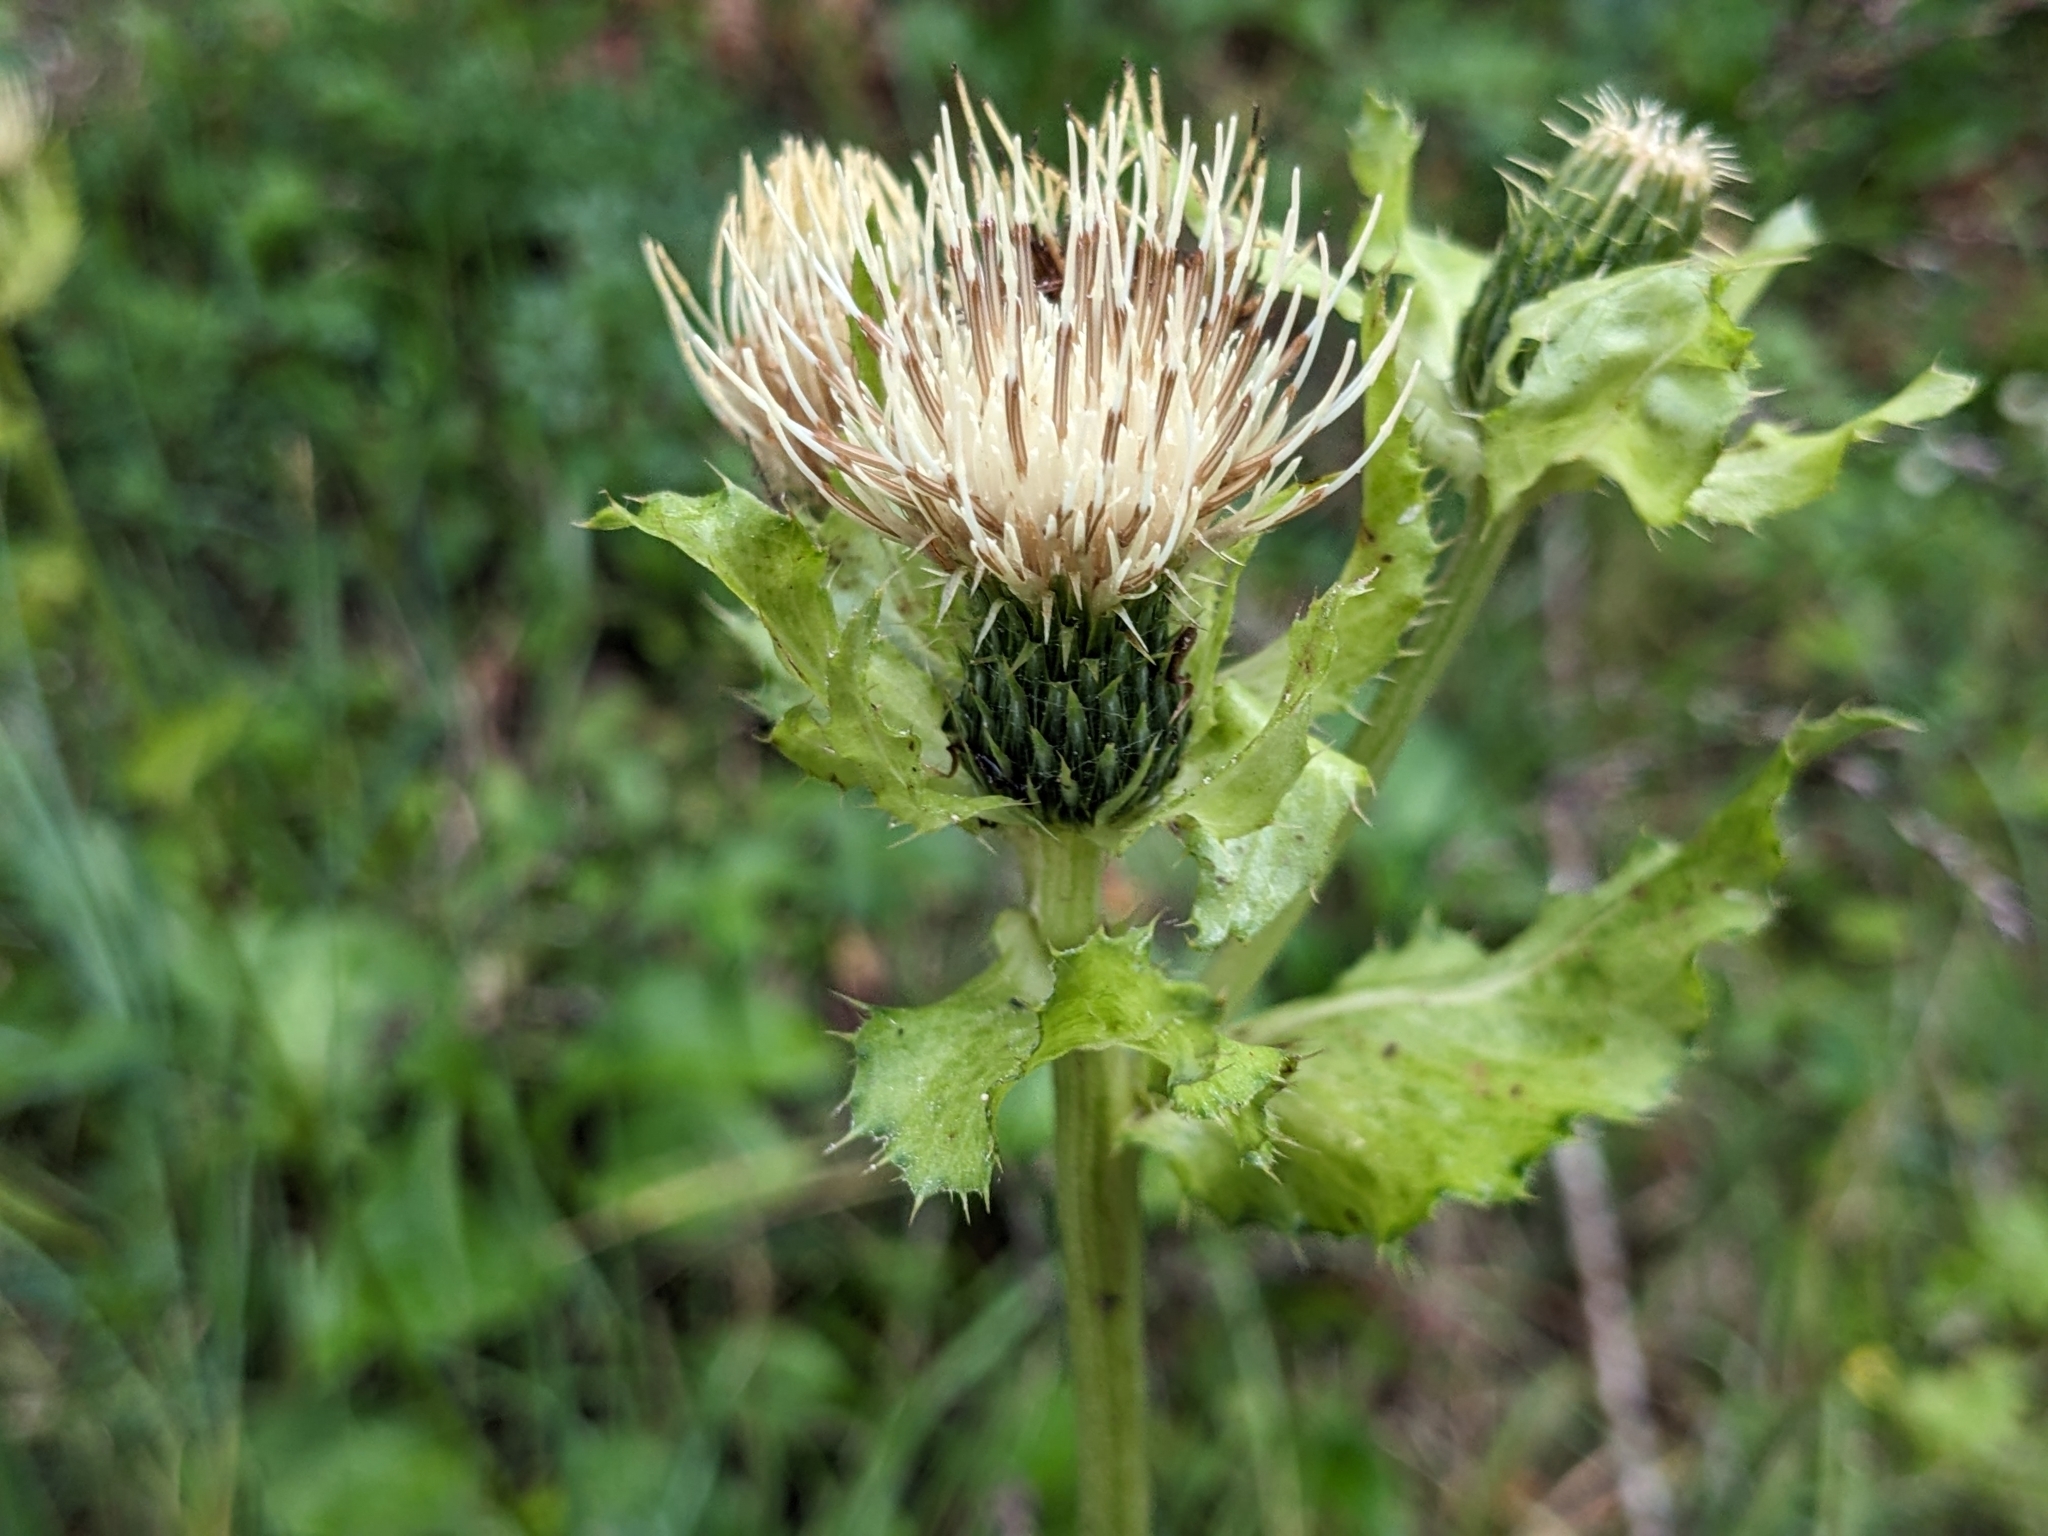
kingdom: Plantae
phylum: Tracheophyta
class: Magnoliopsida
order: Asterales
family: Asteraceae
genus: Cirsium
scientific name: Cirsium oleraceum
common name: Cabbage thistle
